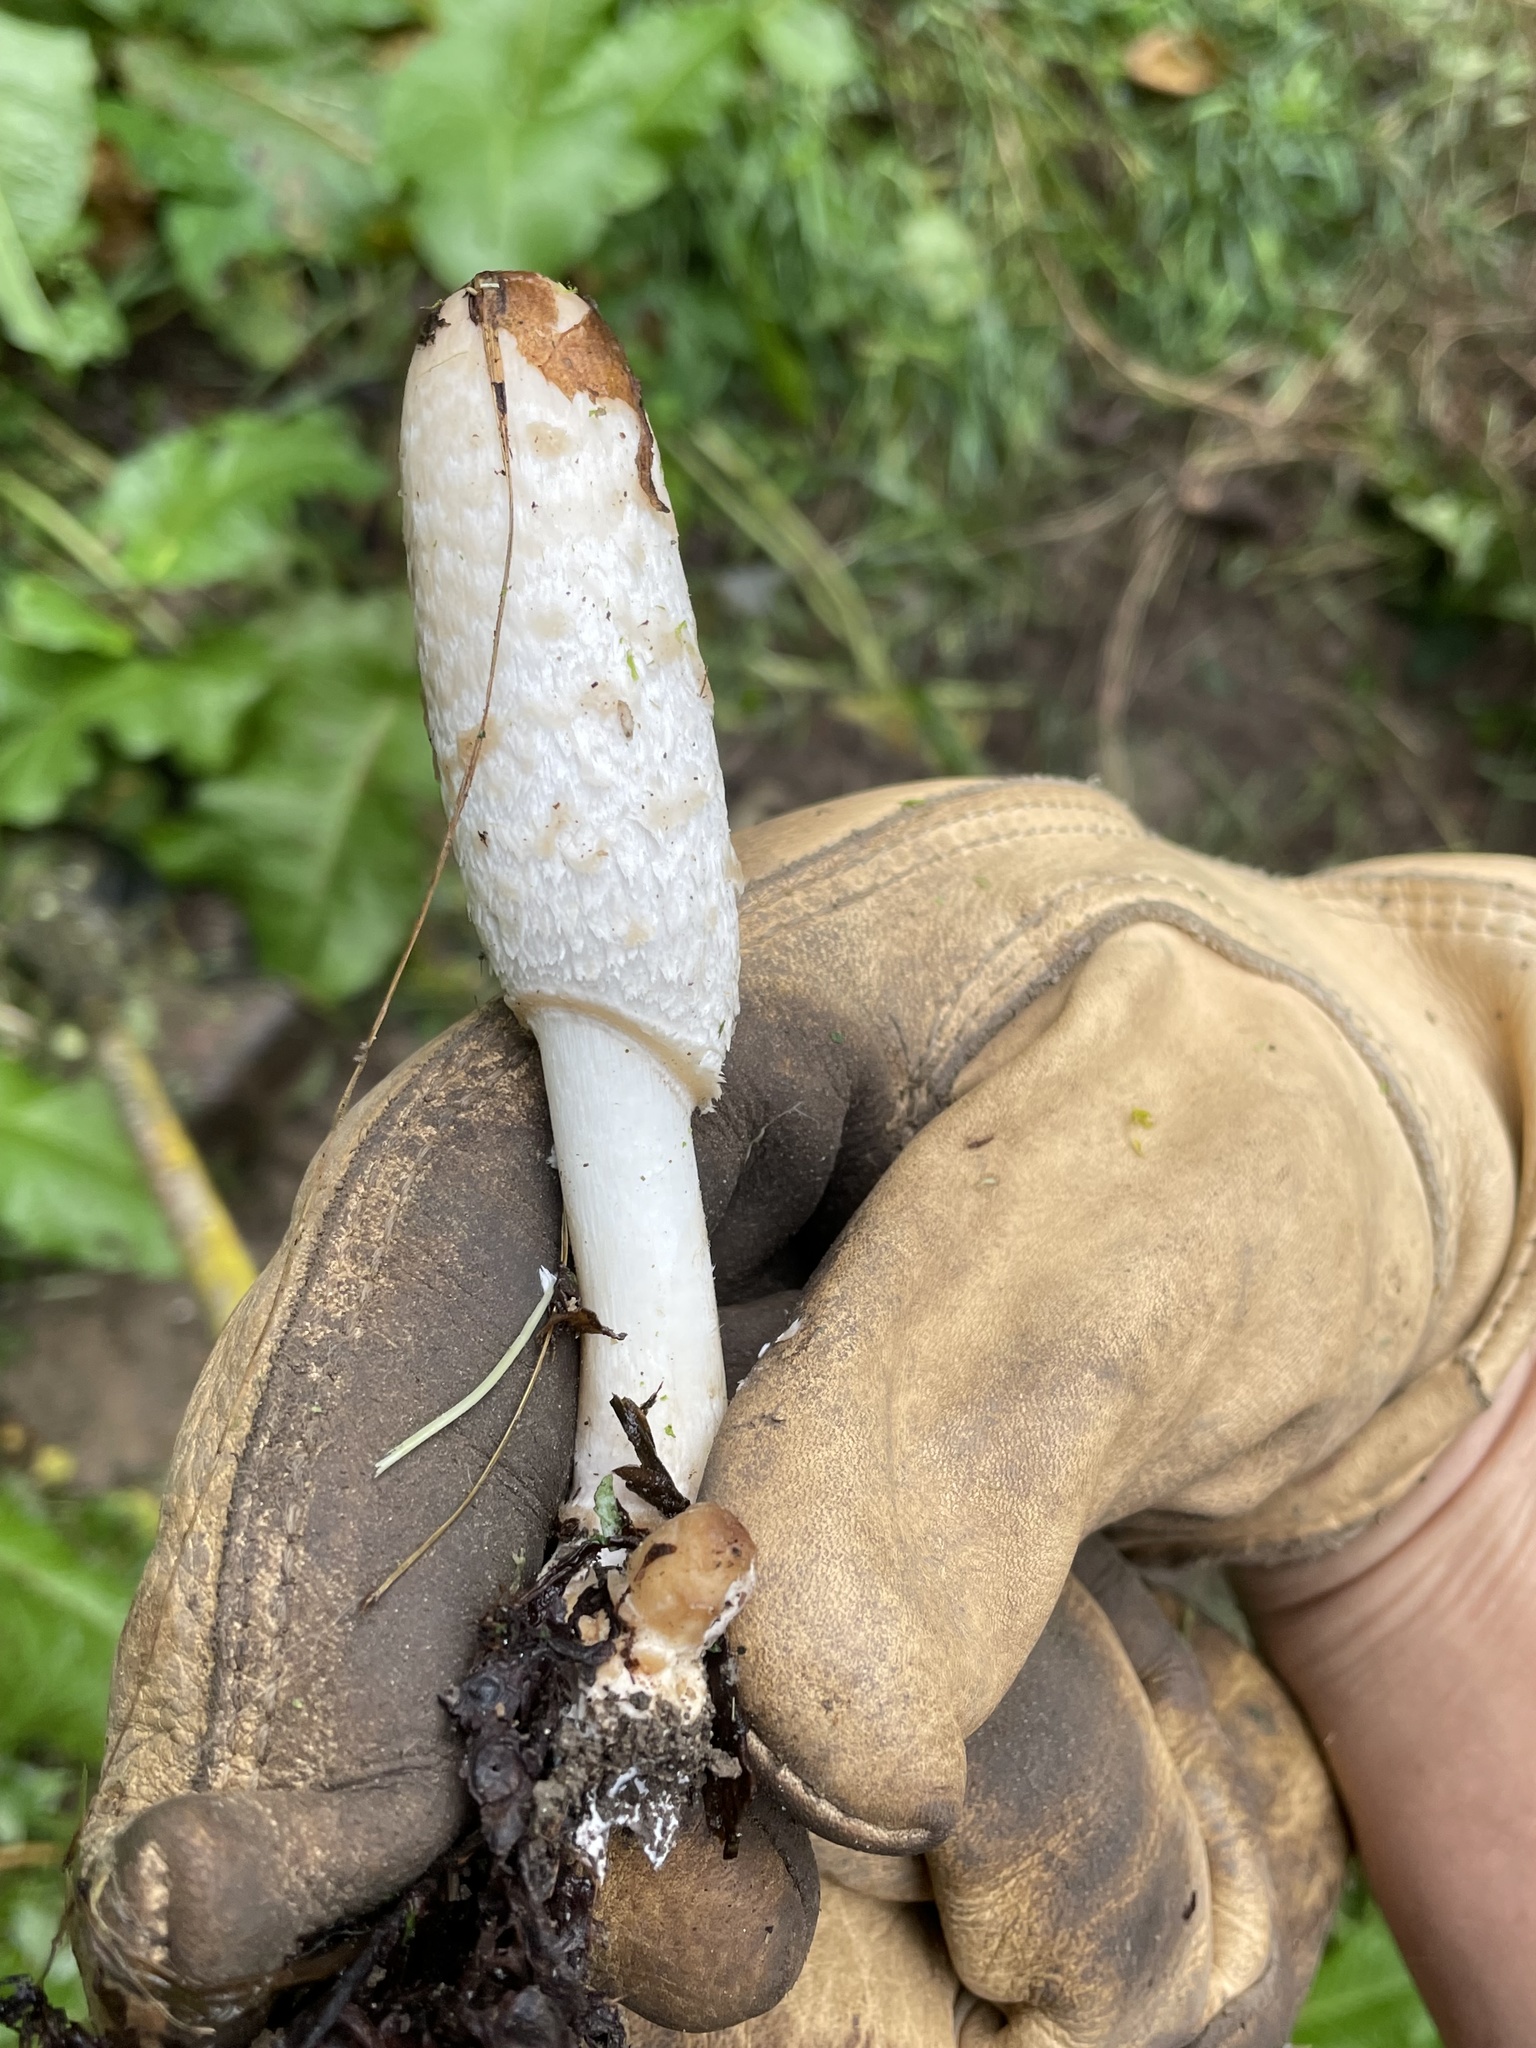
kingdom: Fungi
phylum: Basidiomycota
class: Agaricomycetes
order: Agaricales
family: Agaricaceae
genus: Coprinus
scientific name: Coprinus comatus
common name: Lawyer's wig
